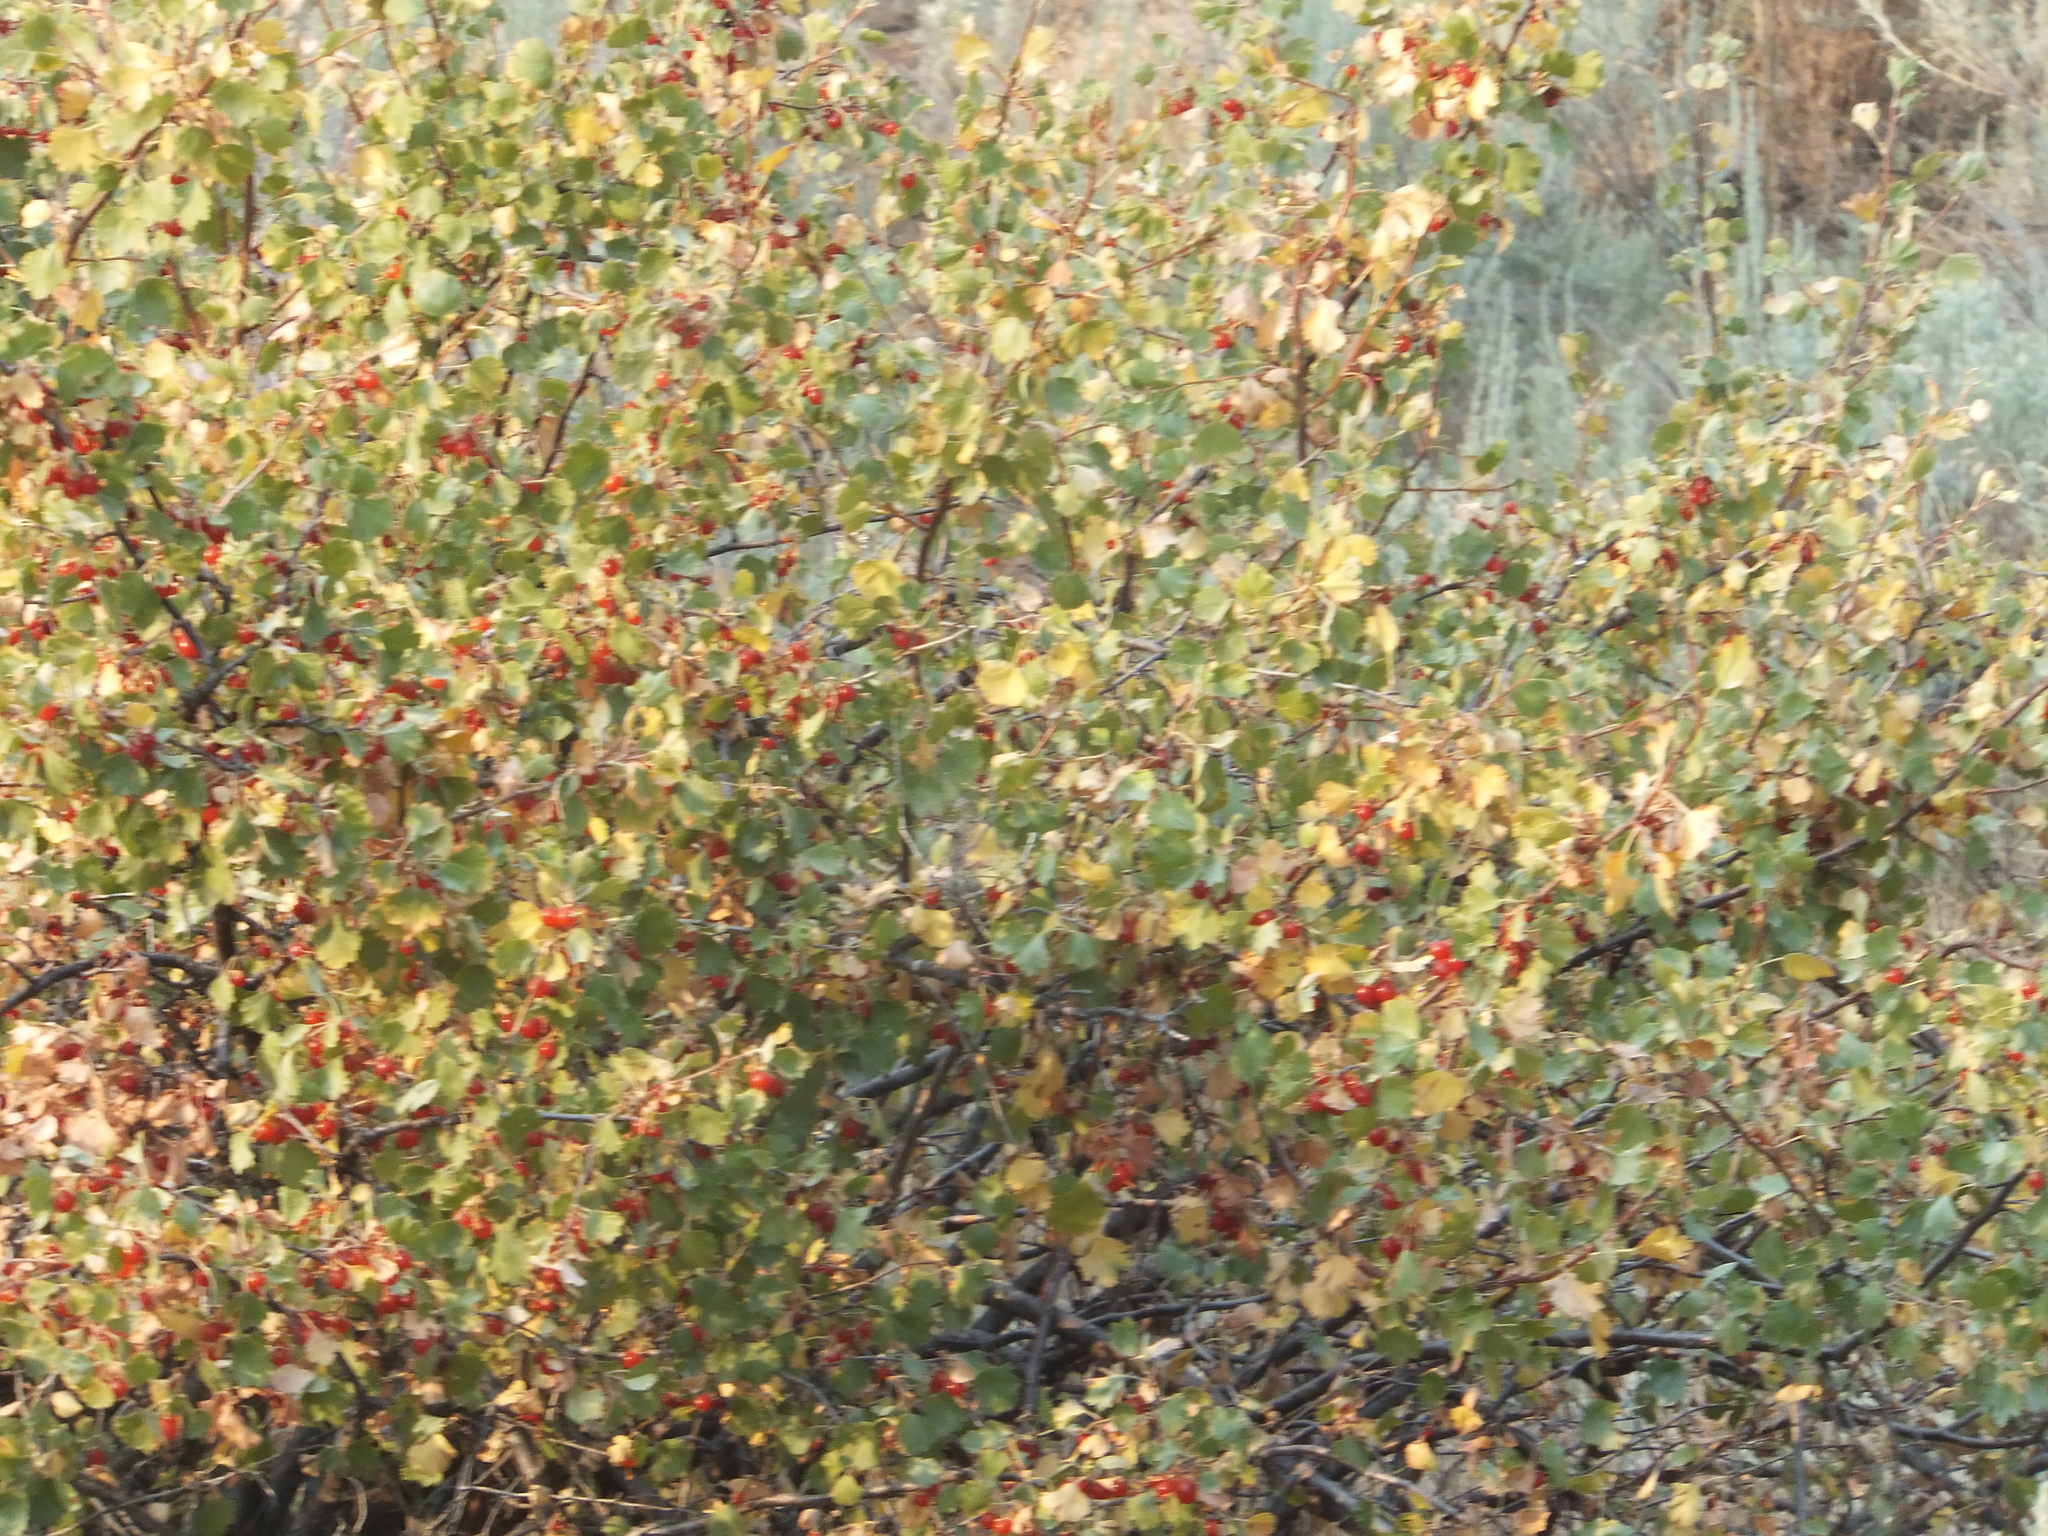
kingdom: Plantae
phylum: Tracheophyta
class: Magnoliopsida
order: Saxifragales
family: Grossulariaceae
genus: Ribes
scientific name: Ribes cereum
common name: Wax currant
